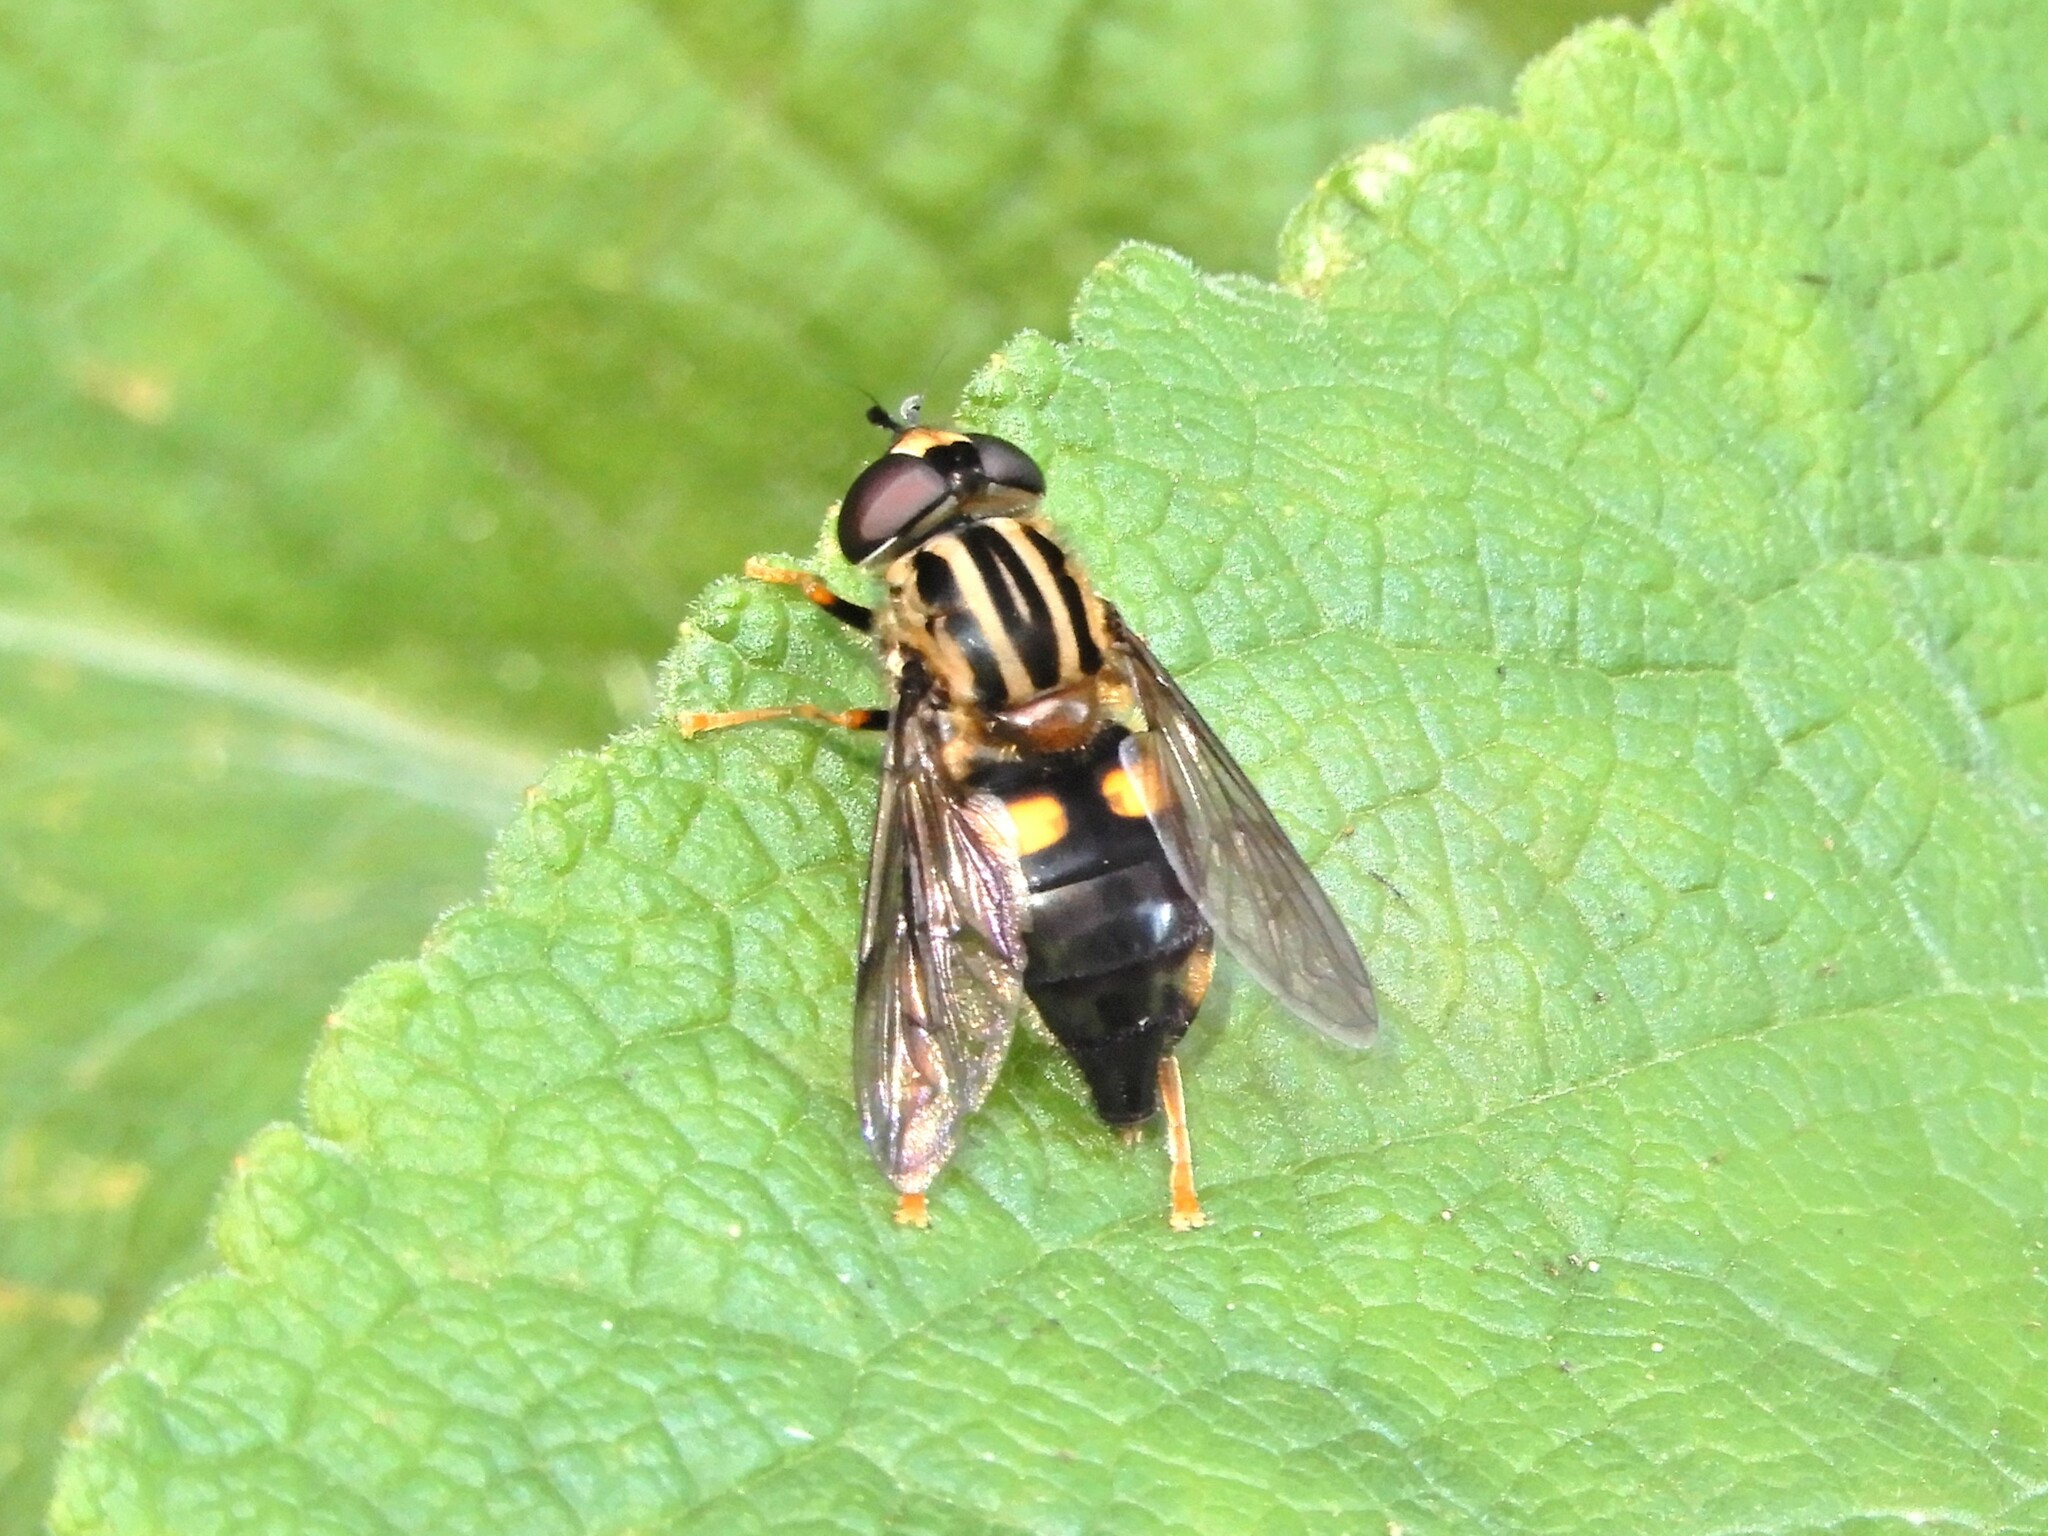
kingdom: Animalia
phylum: Arthropoda
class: Insecta
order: Diptera
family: Syrphidae
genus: Helophilus
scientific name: Helophilus antipodus
